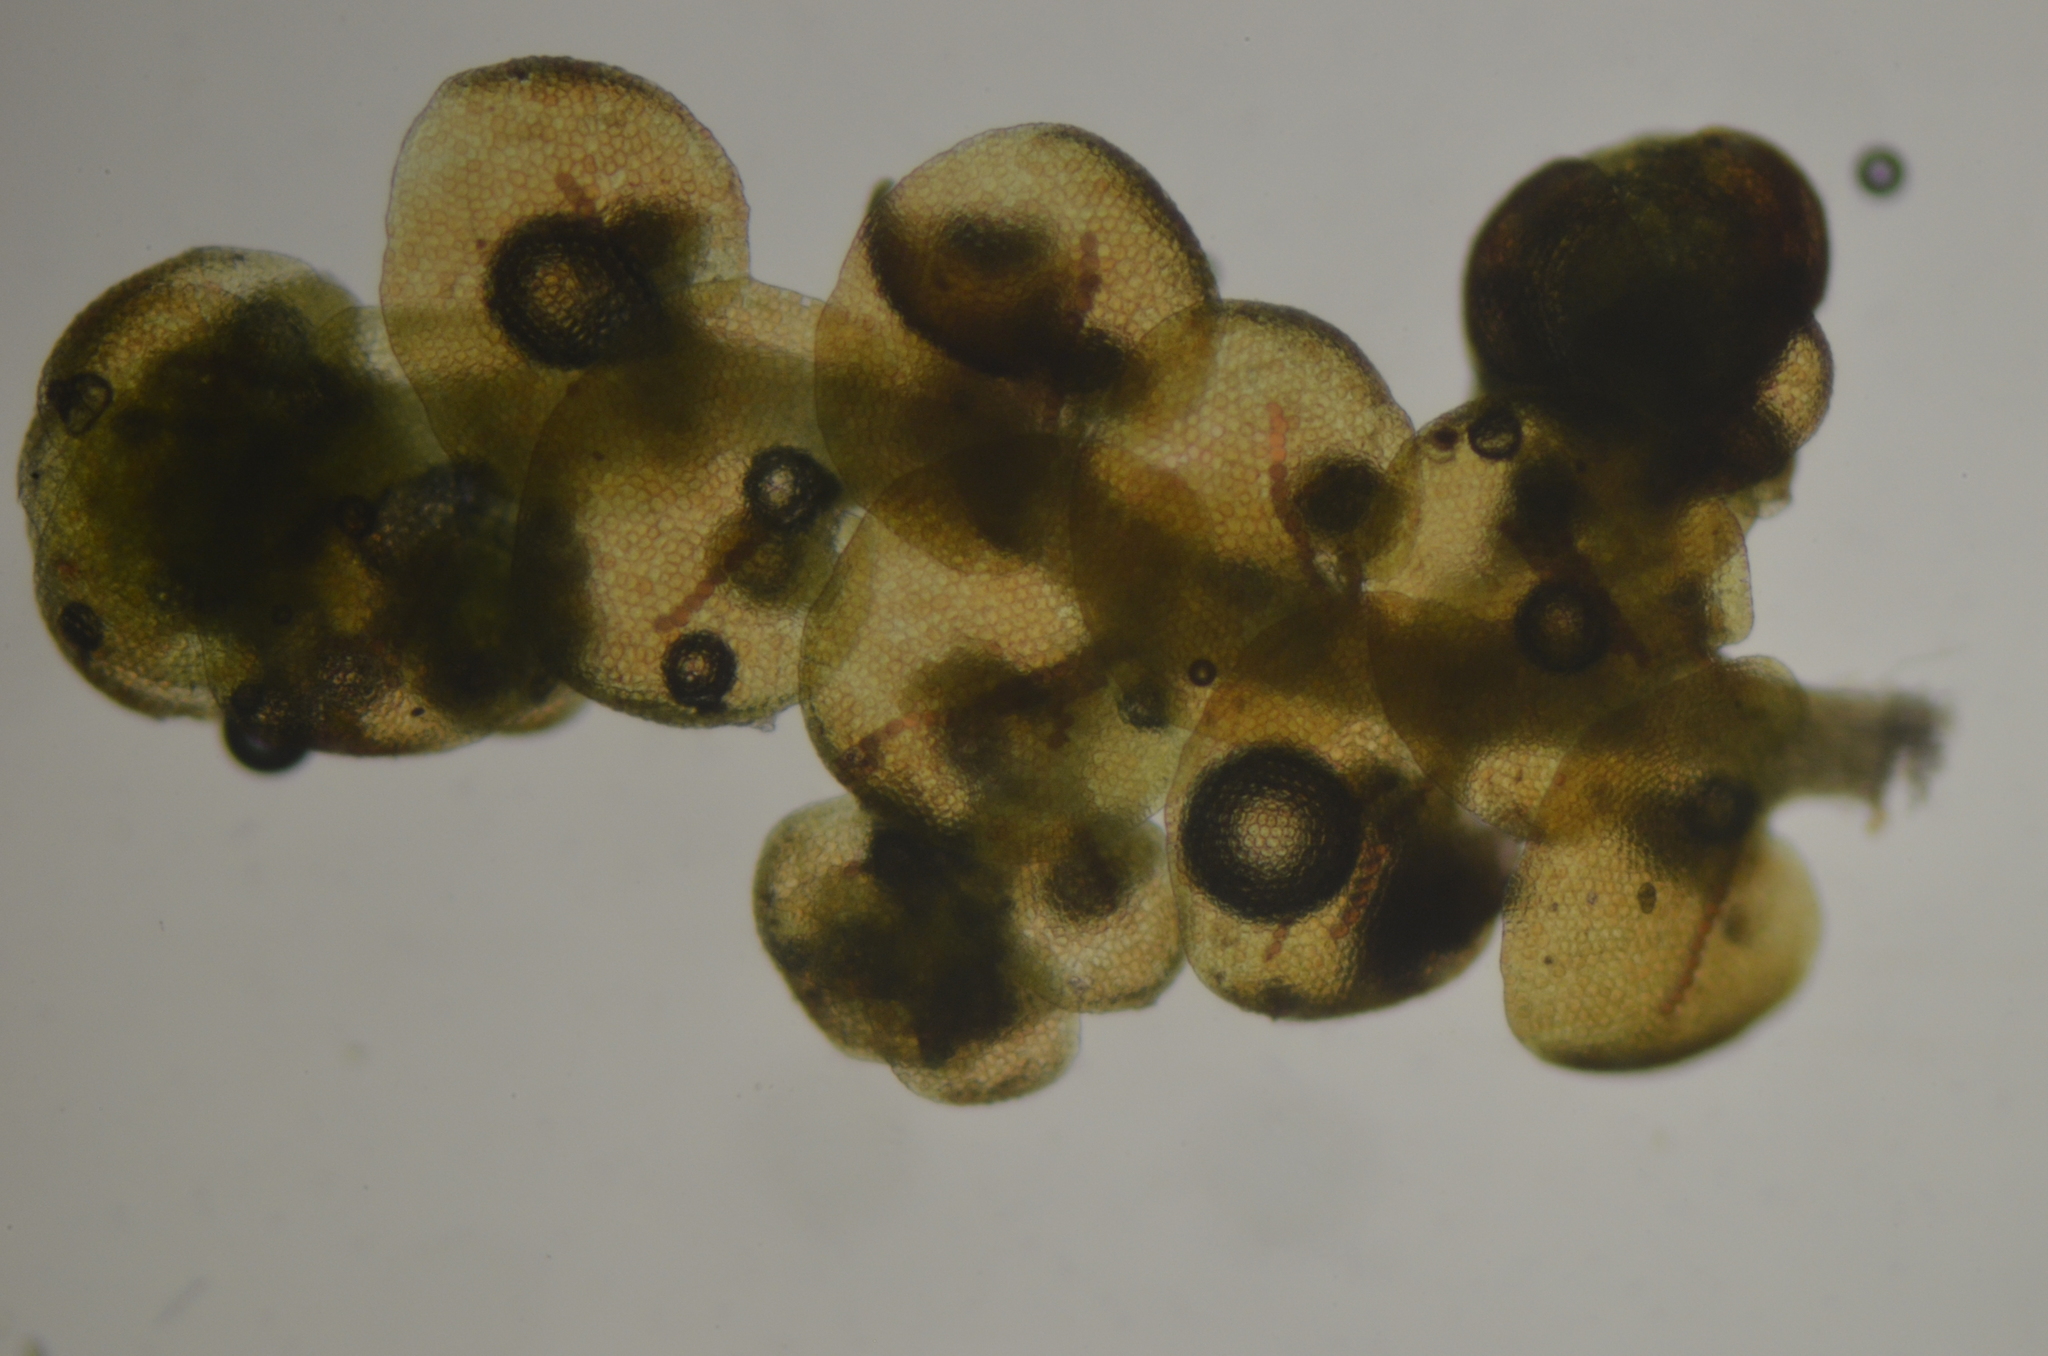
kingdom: Plantae
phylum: Marchantiophyta
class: Jungermanniopsida
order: Porellales
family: Frullaniaceae
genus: Frullania
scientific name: Frullania nisquallensis
